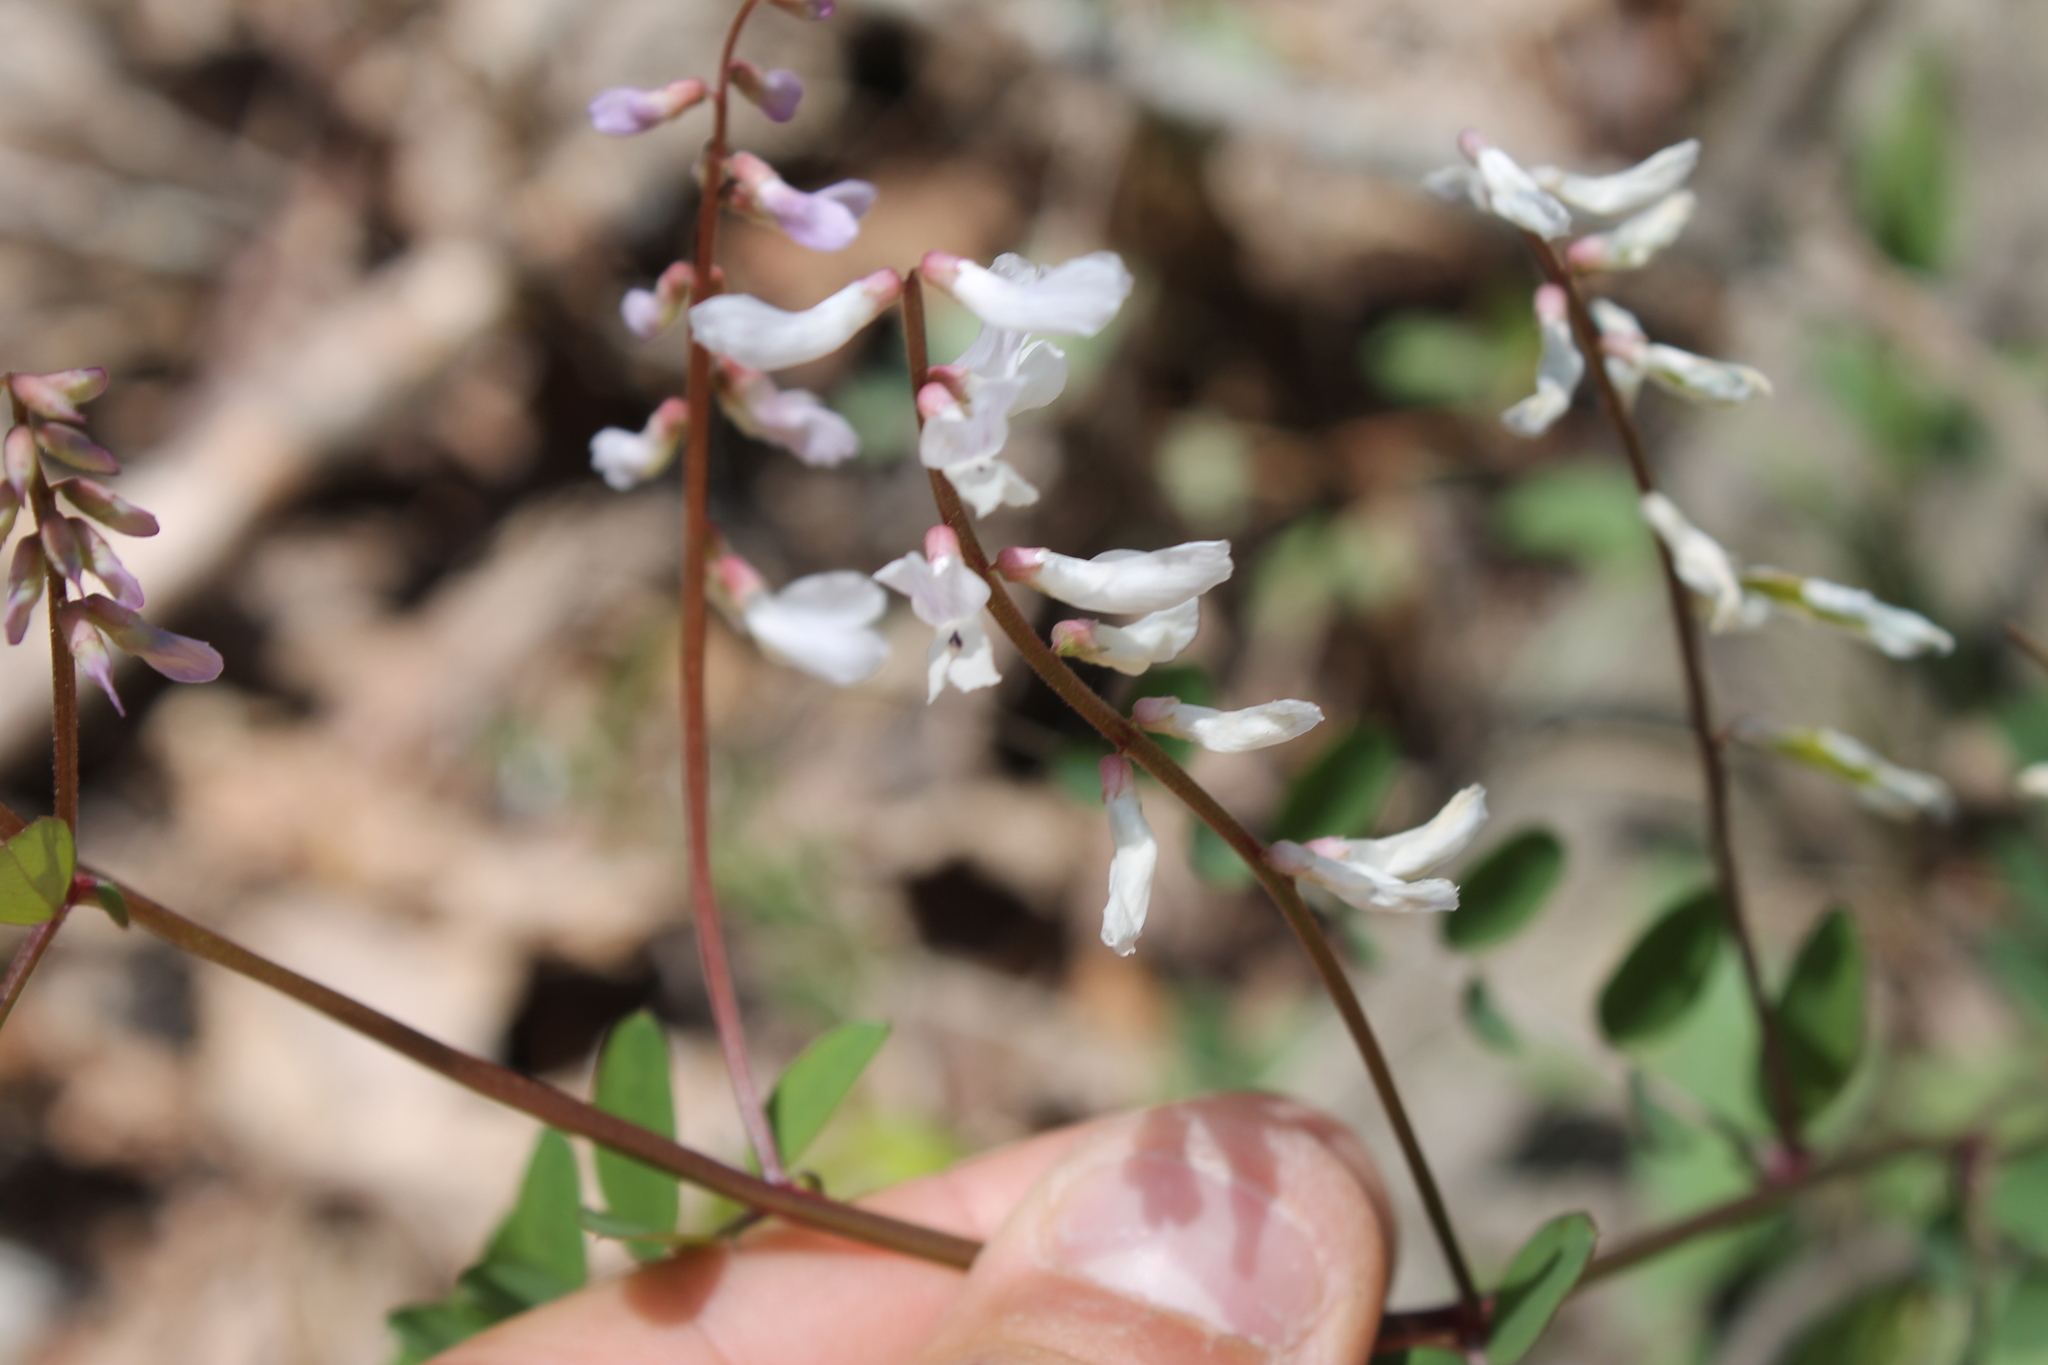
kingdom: Plantae
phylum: Tracheophyta
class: Magnoliopsida
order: Fabales
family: Fabaceae
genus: Vicia
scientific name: Vicia caroliniana
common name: Carolina vetch
